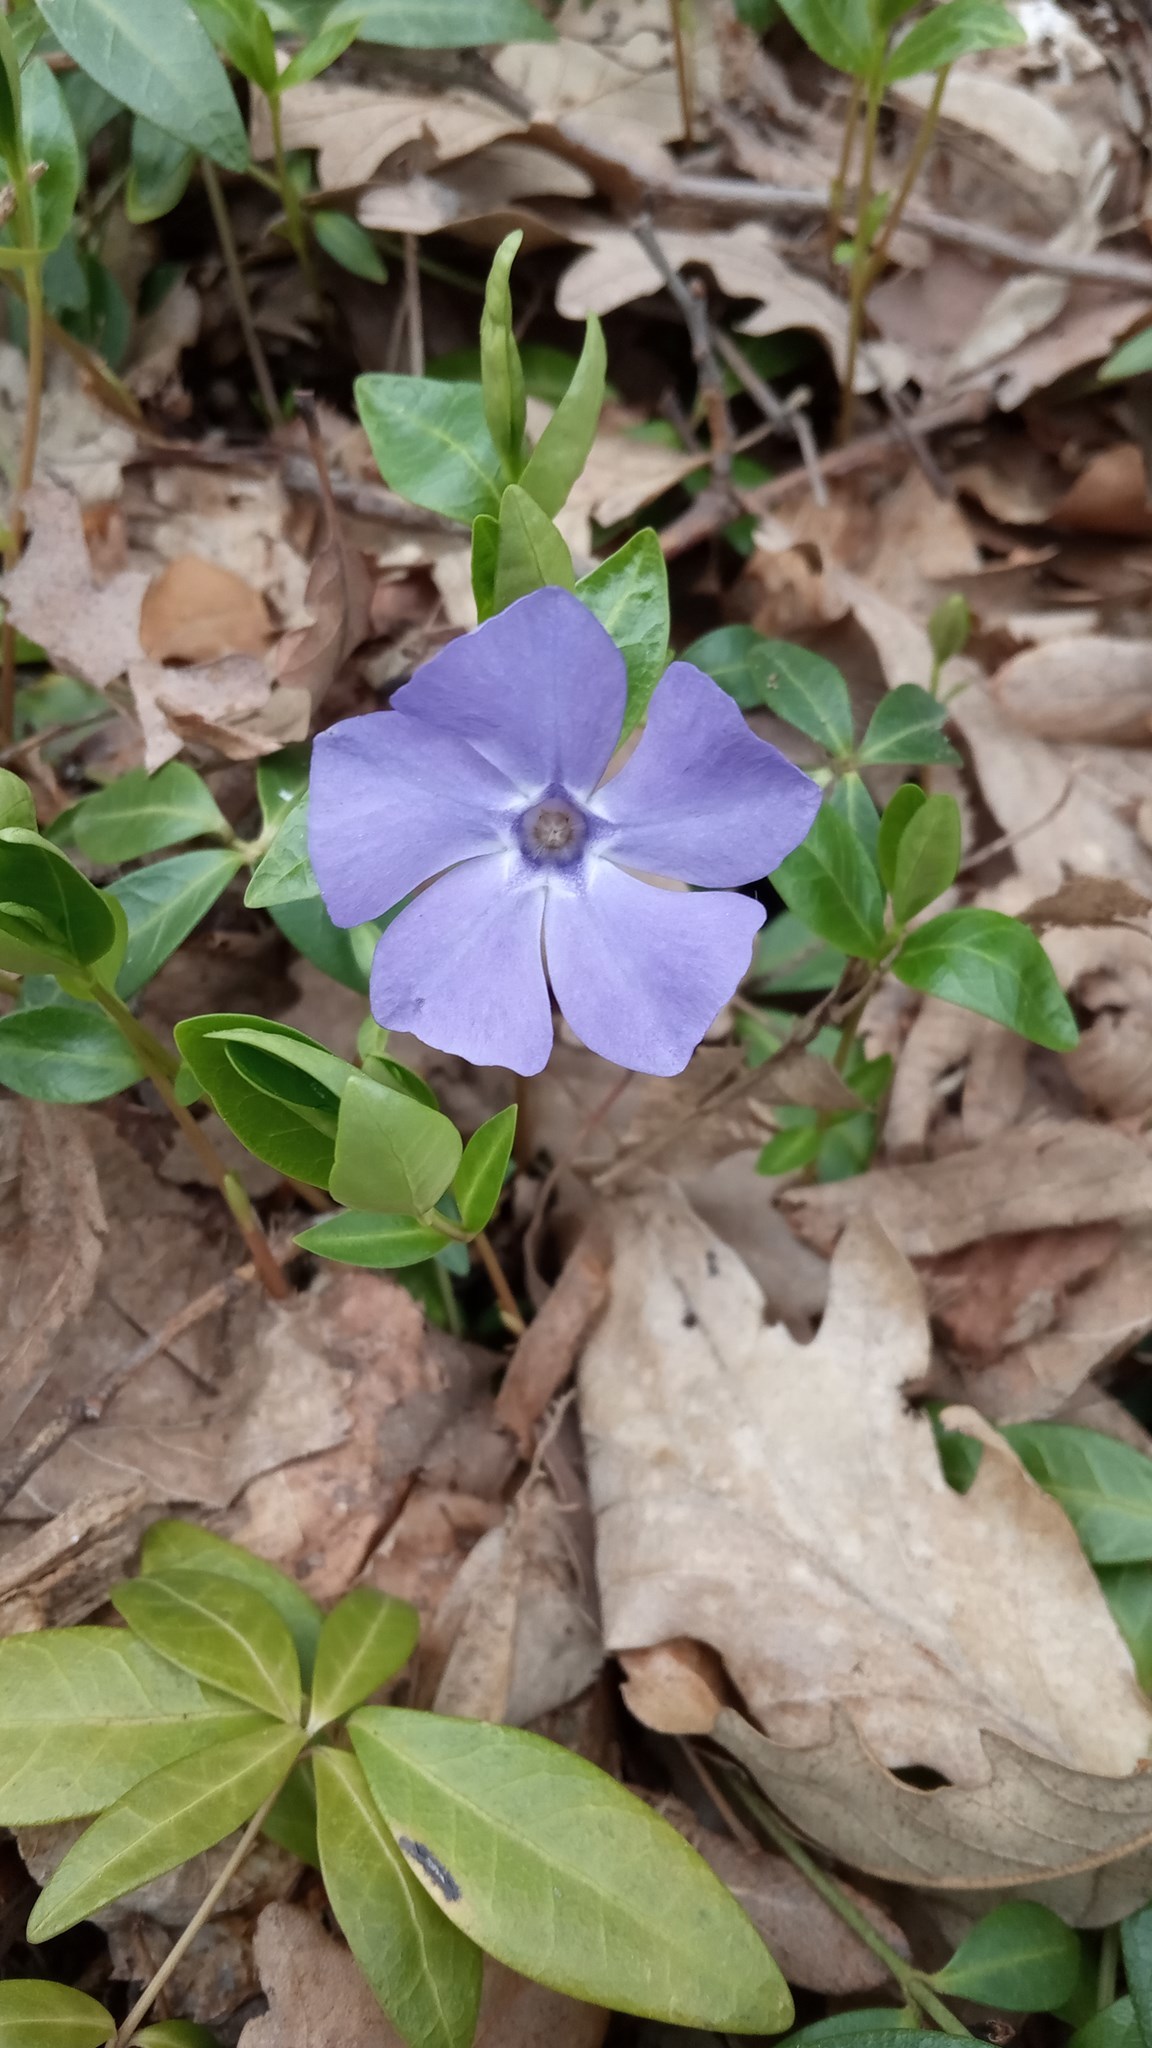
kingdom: Plantae
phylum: Tracheophyta
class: Magnoliopsida
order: Gentianales
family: Apocynaceae
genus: Vinca
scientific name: Vinca minor
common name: Lesser periwinkle
